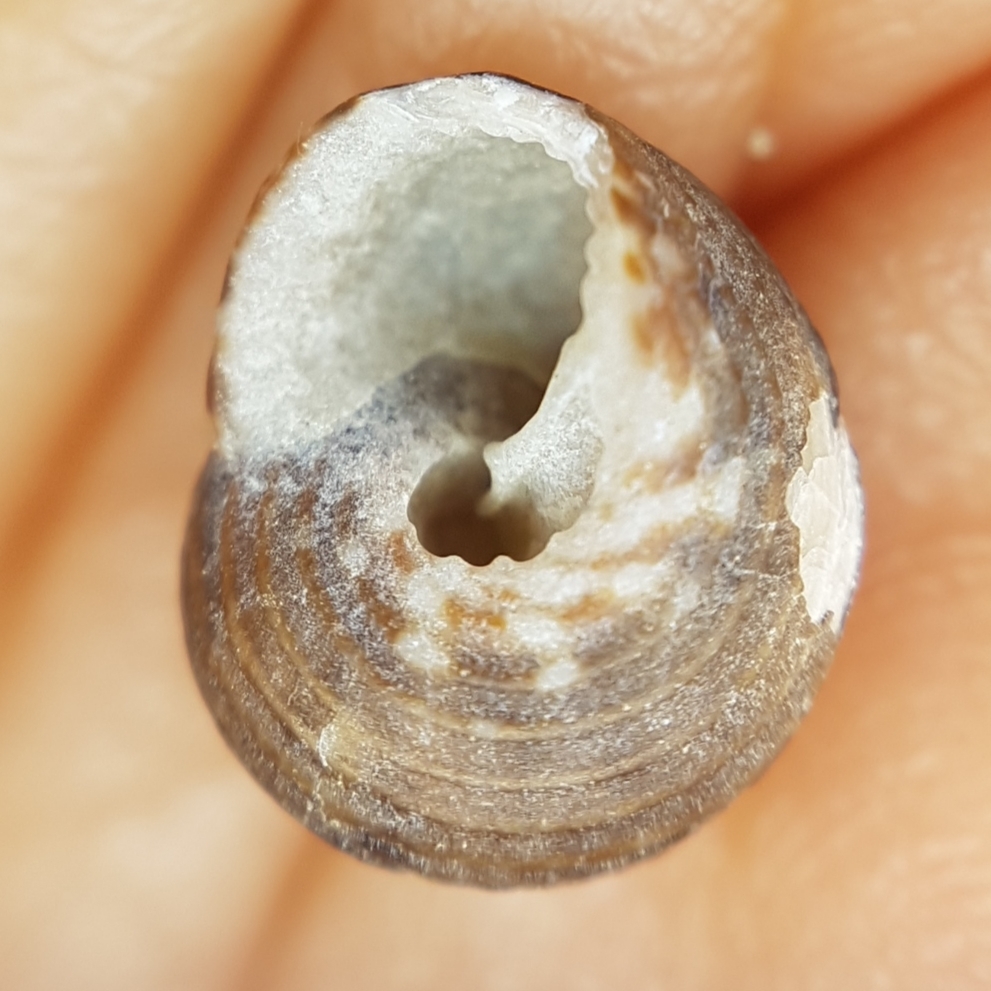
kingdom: Animalia
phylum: Mollusca
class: Gastropoda
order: Trochida
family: Trochidae
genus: Clanculus
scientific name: Clanculus cruciatus
